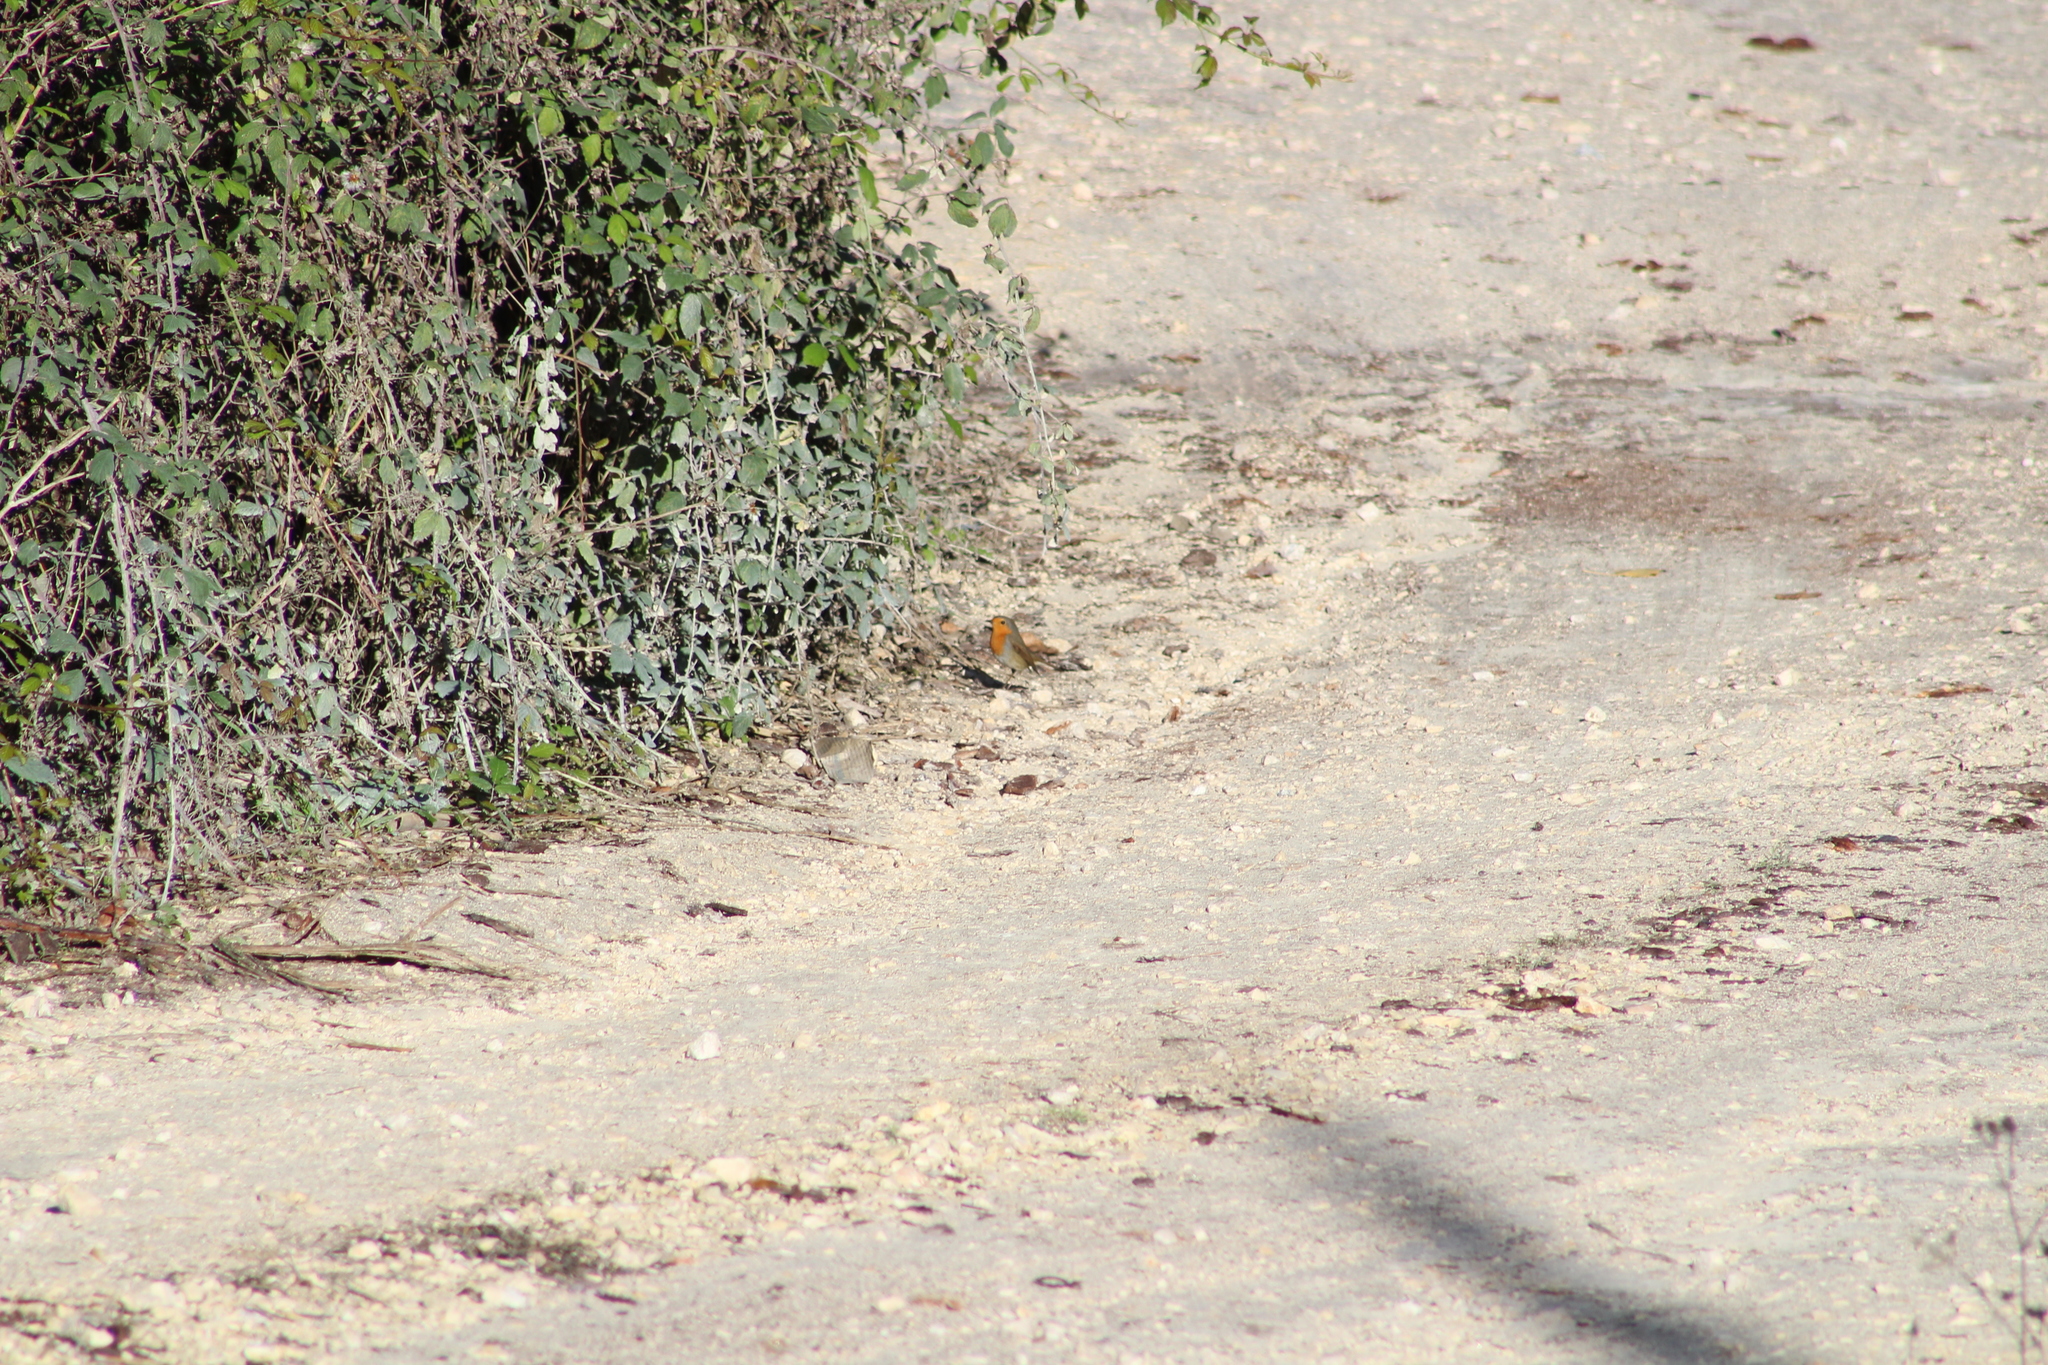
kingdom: Animalia
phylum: Chordata
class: Aves
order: Passeriformes
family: Muscicapidae
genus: Erithacus
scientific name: Erithacus rubecula
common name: European robin
